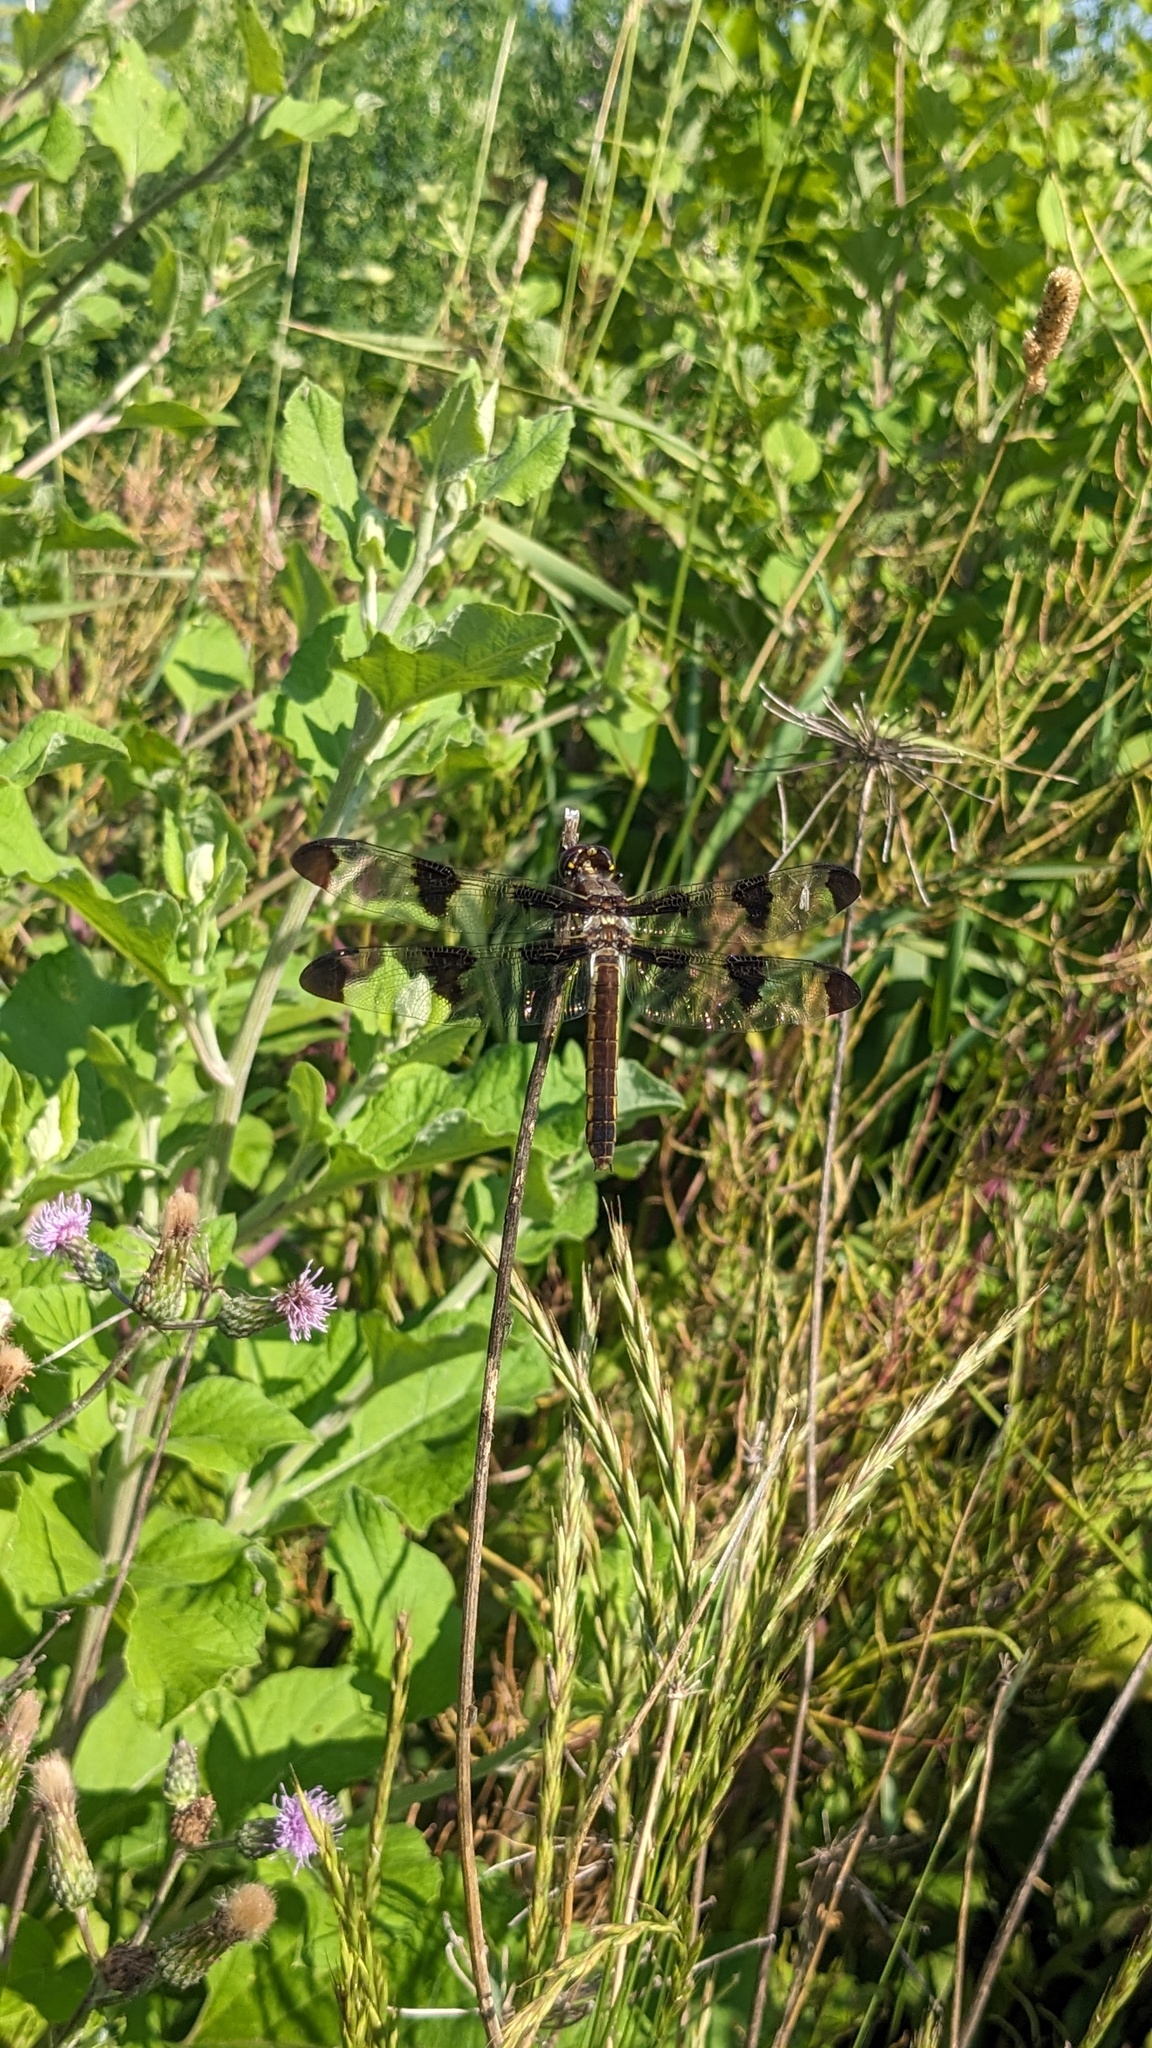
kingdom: Animalia
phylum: Arthropoda
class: Insecta
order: Odonata
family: Libellulidae
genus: Libellula
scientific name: Libellula pulchella
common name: Twelve-spotted skimmer
